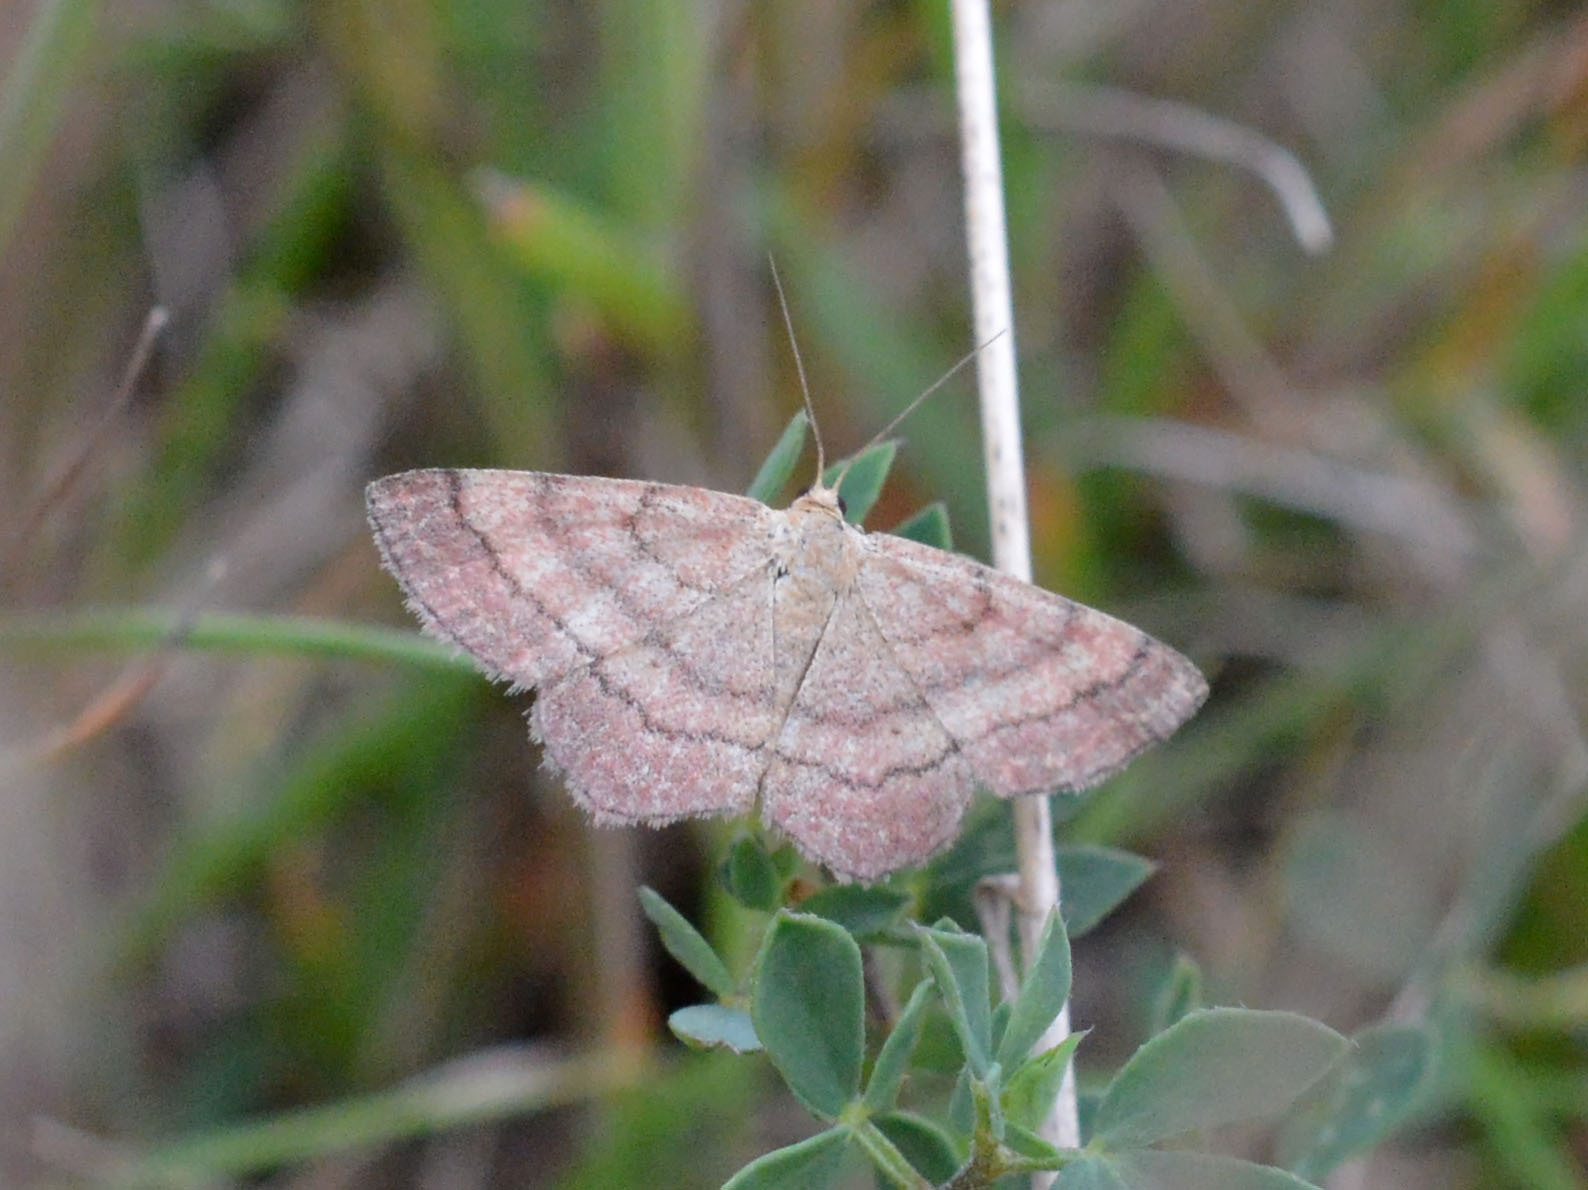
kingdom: Animalia
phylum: Arthropoda
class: Insecta
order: Lepidoptera
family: Geometridae
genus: Scopula
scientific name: Scopula rubiginata
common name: Tawny wave
